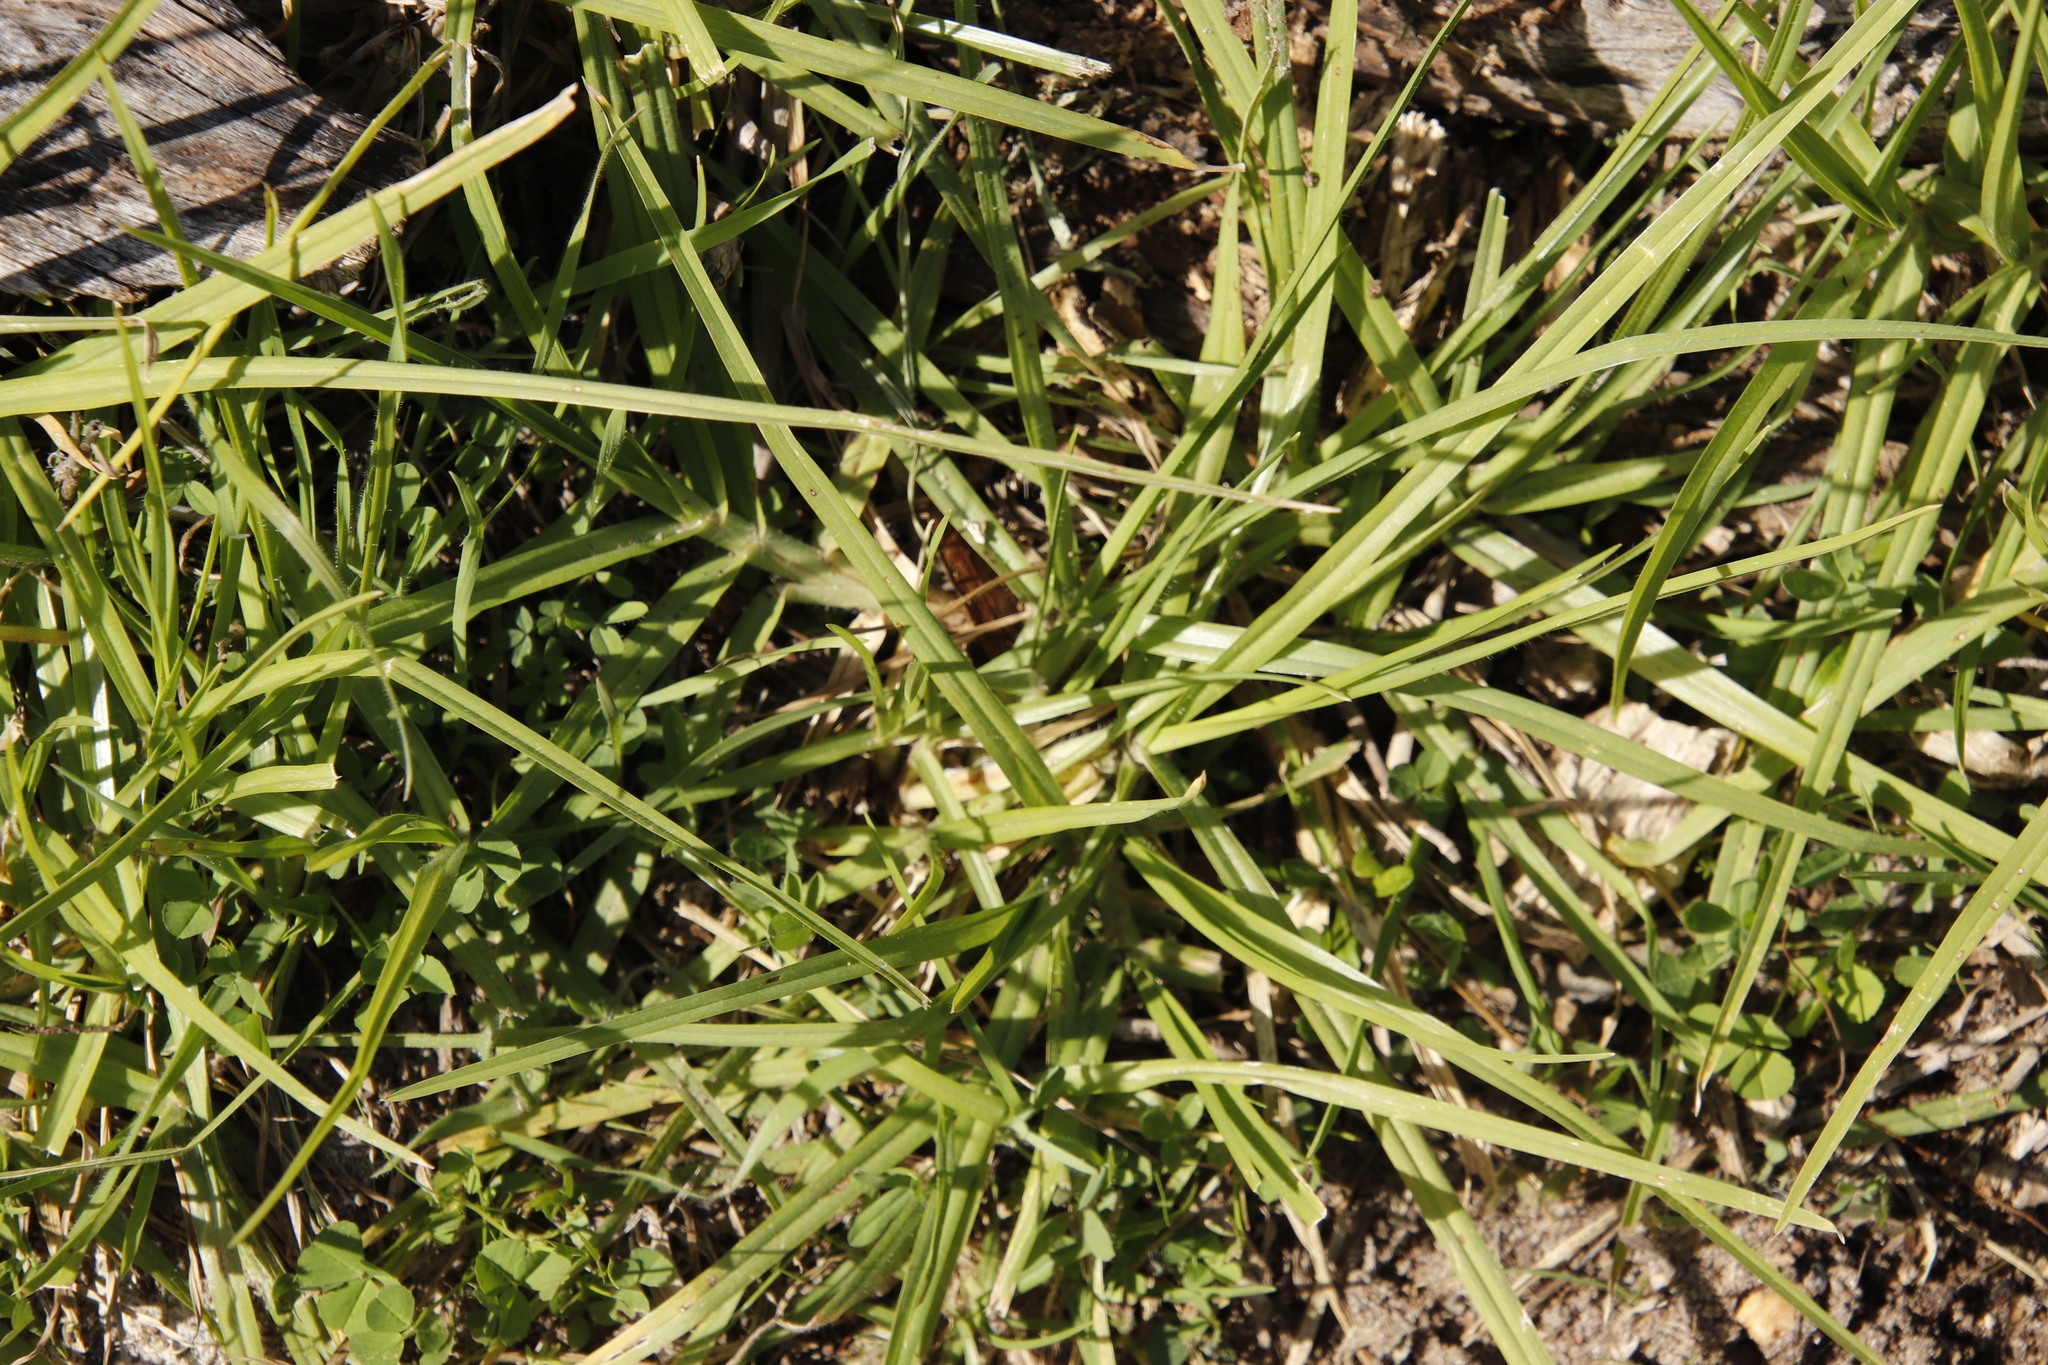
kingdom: Plantae
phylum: Tracheophyta
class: Liliopsida
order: Poales
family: Poaceae
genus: Cenchrus
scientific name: Cenchrus clandestinus
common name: Kikuyugrass
